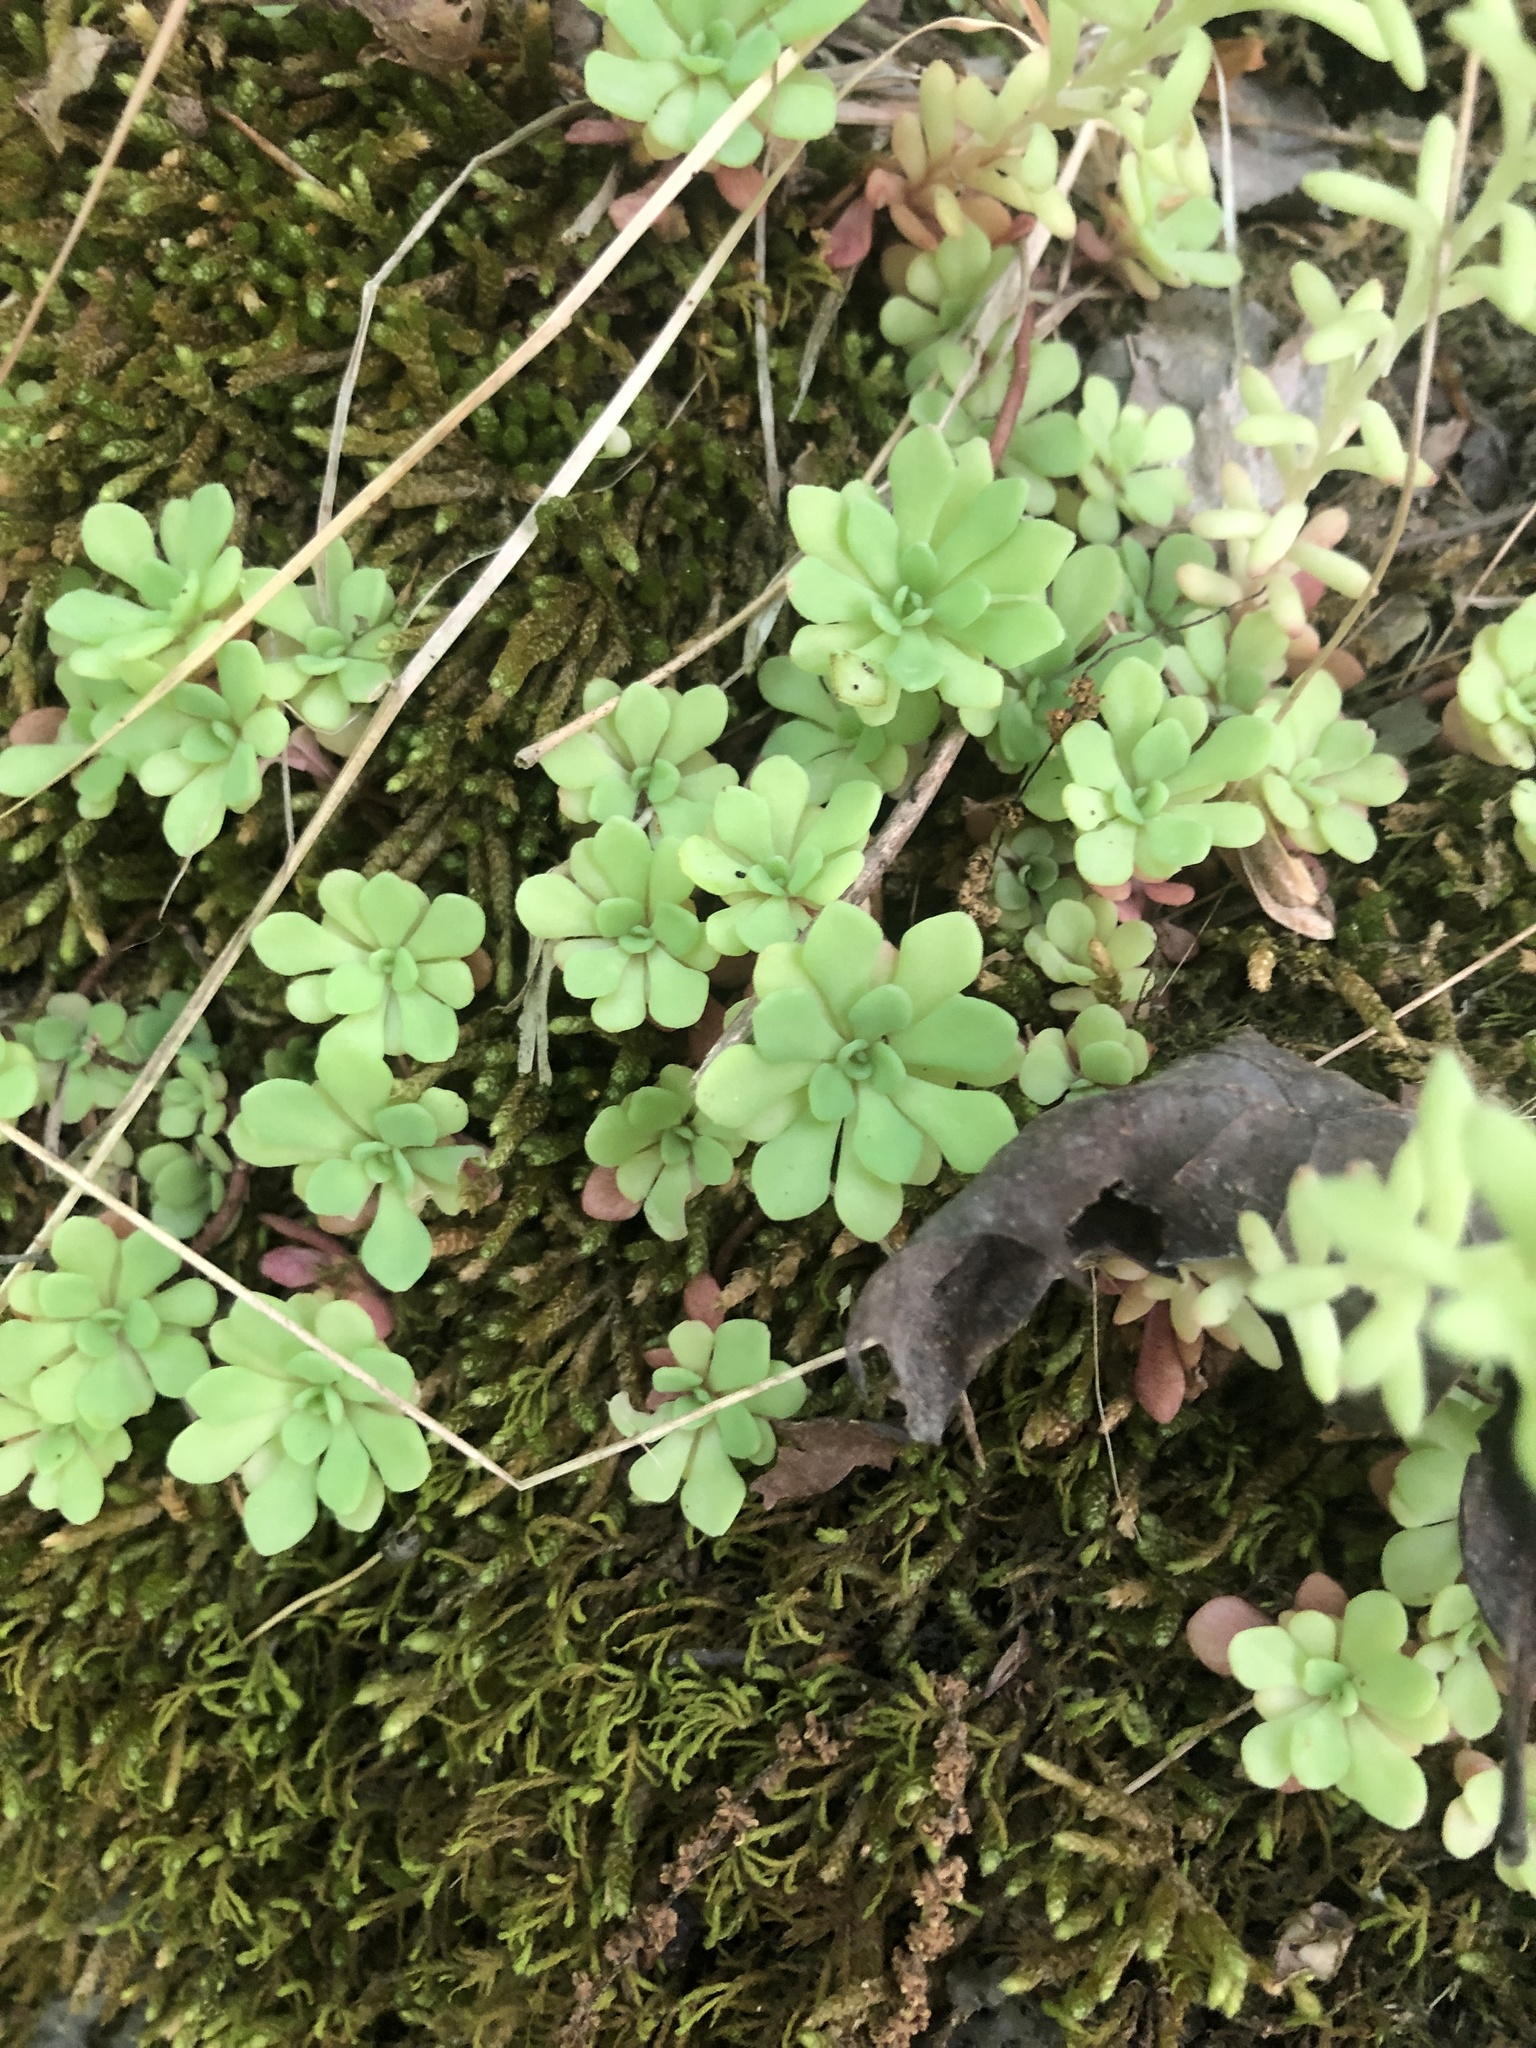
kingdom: Plantae
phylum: Tracheophyta
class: Magnoliopsida
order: Saxifragales
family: Crassulaceae
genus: Sedum
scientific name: Sedum glaucophyllum
